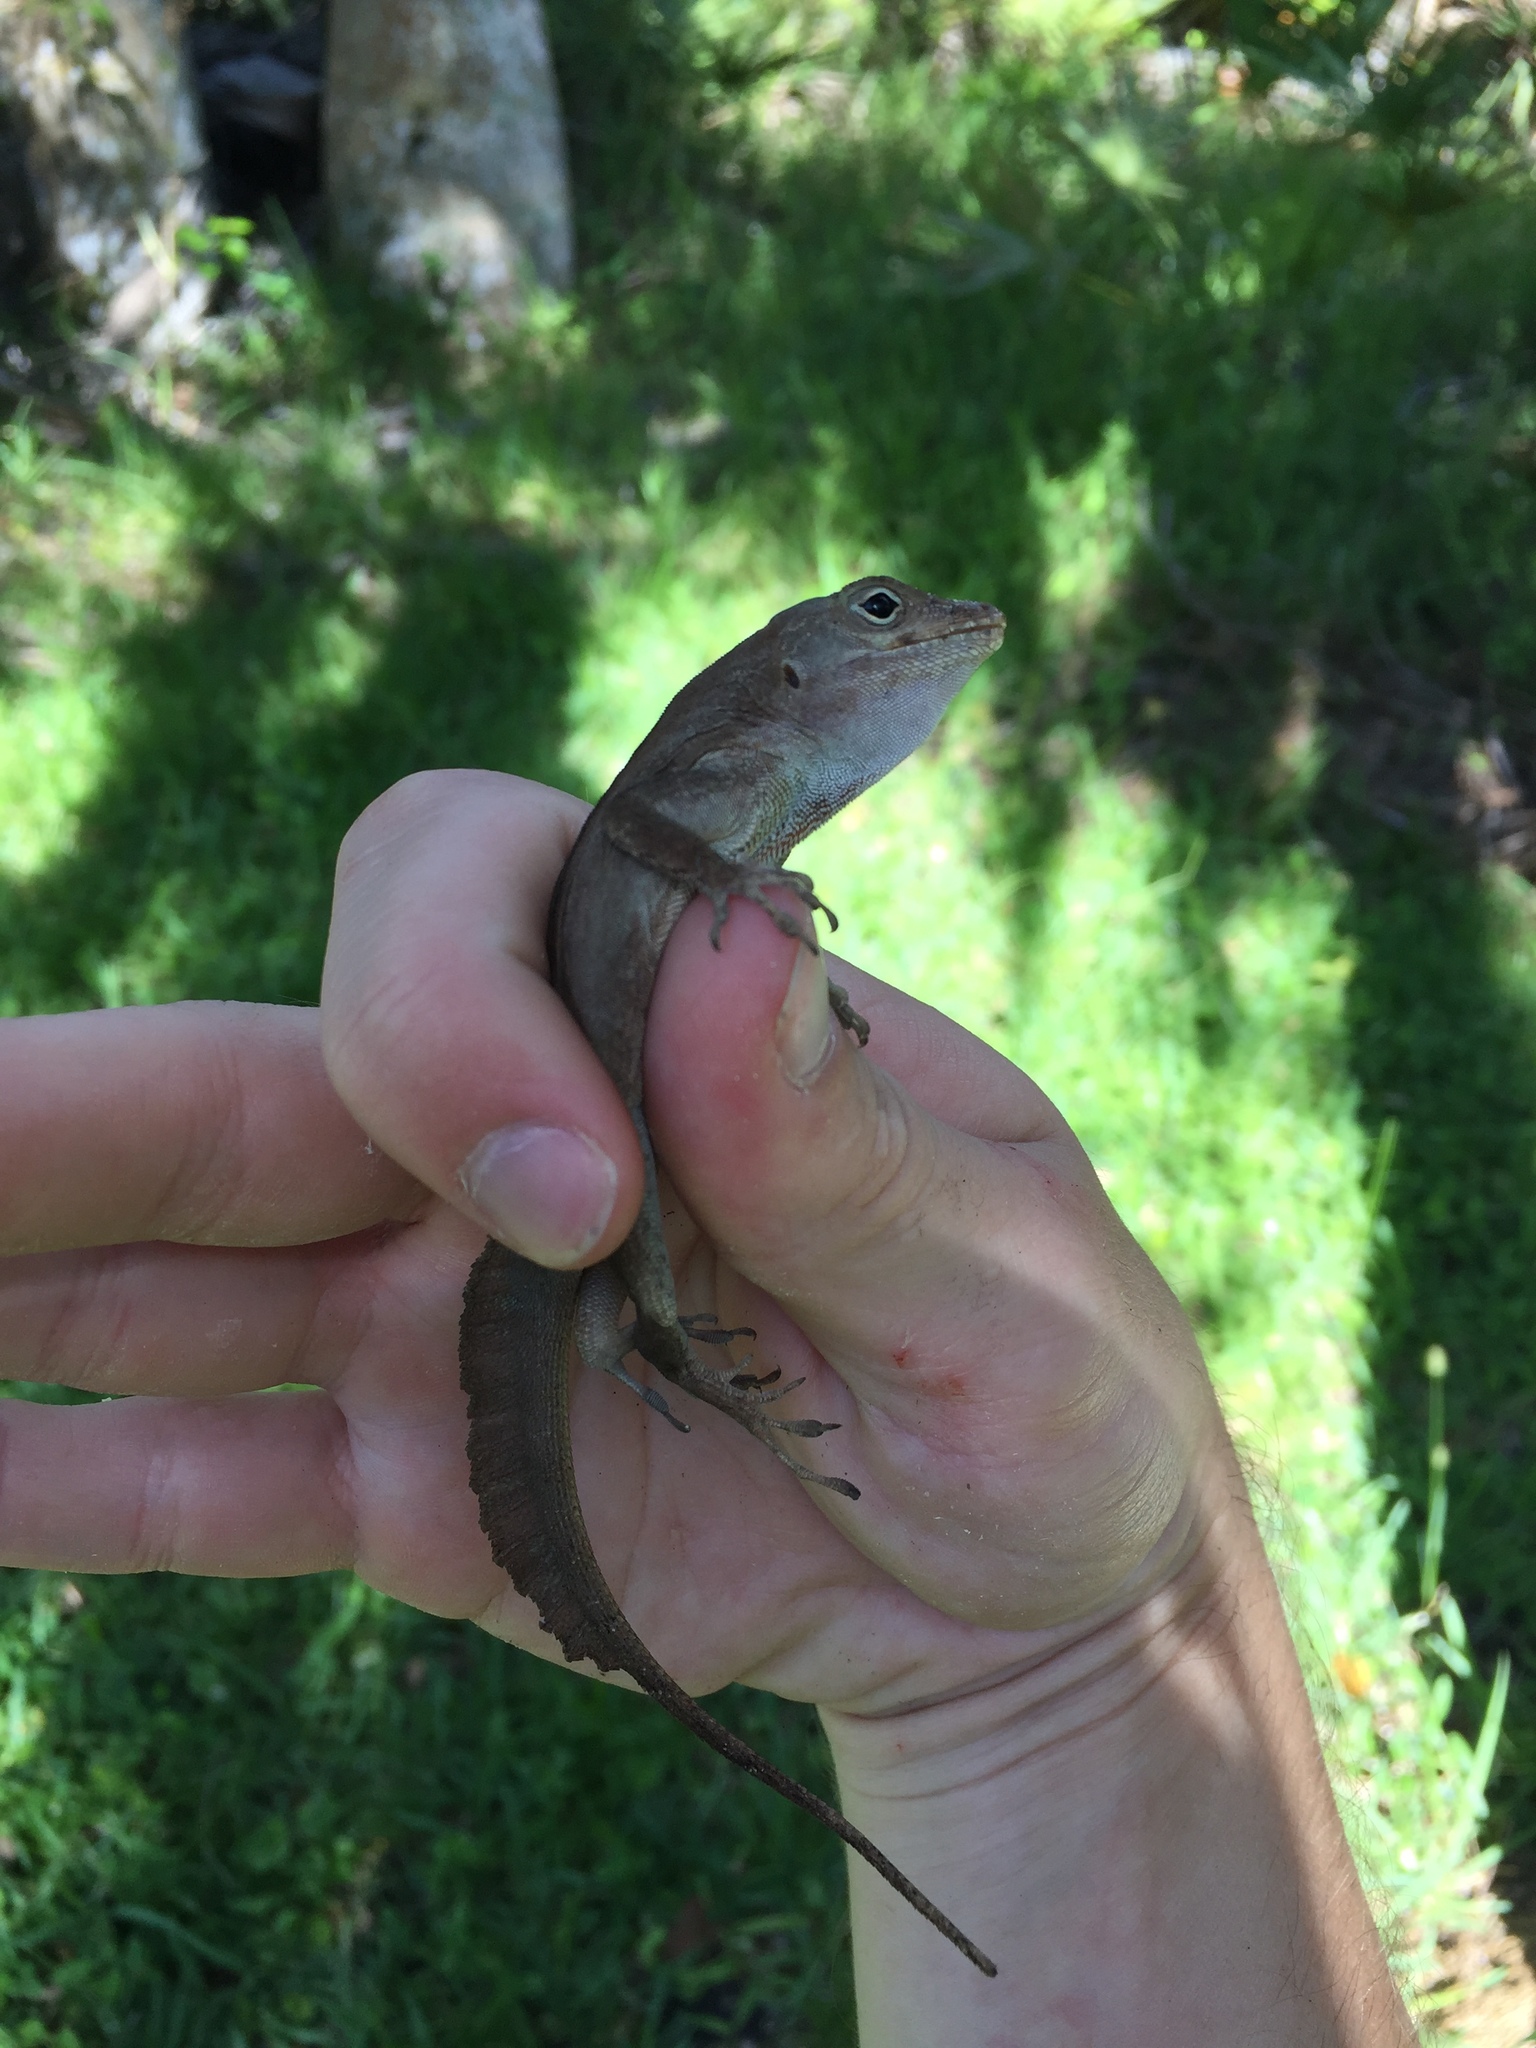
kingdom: Animalia
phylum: Chordata
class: Squamata
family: Dactyloidae
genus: Anolis
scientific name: Anolis cristatellus
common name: Crested anole
